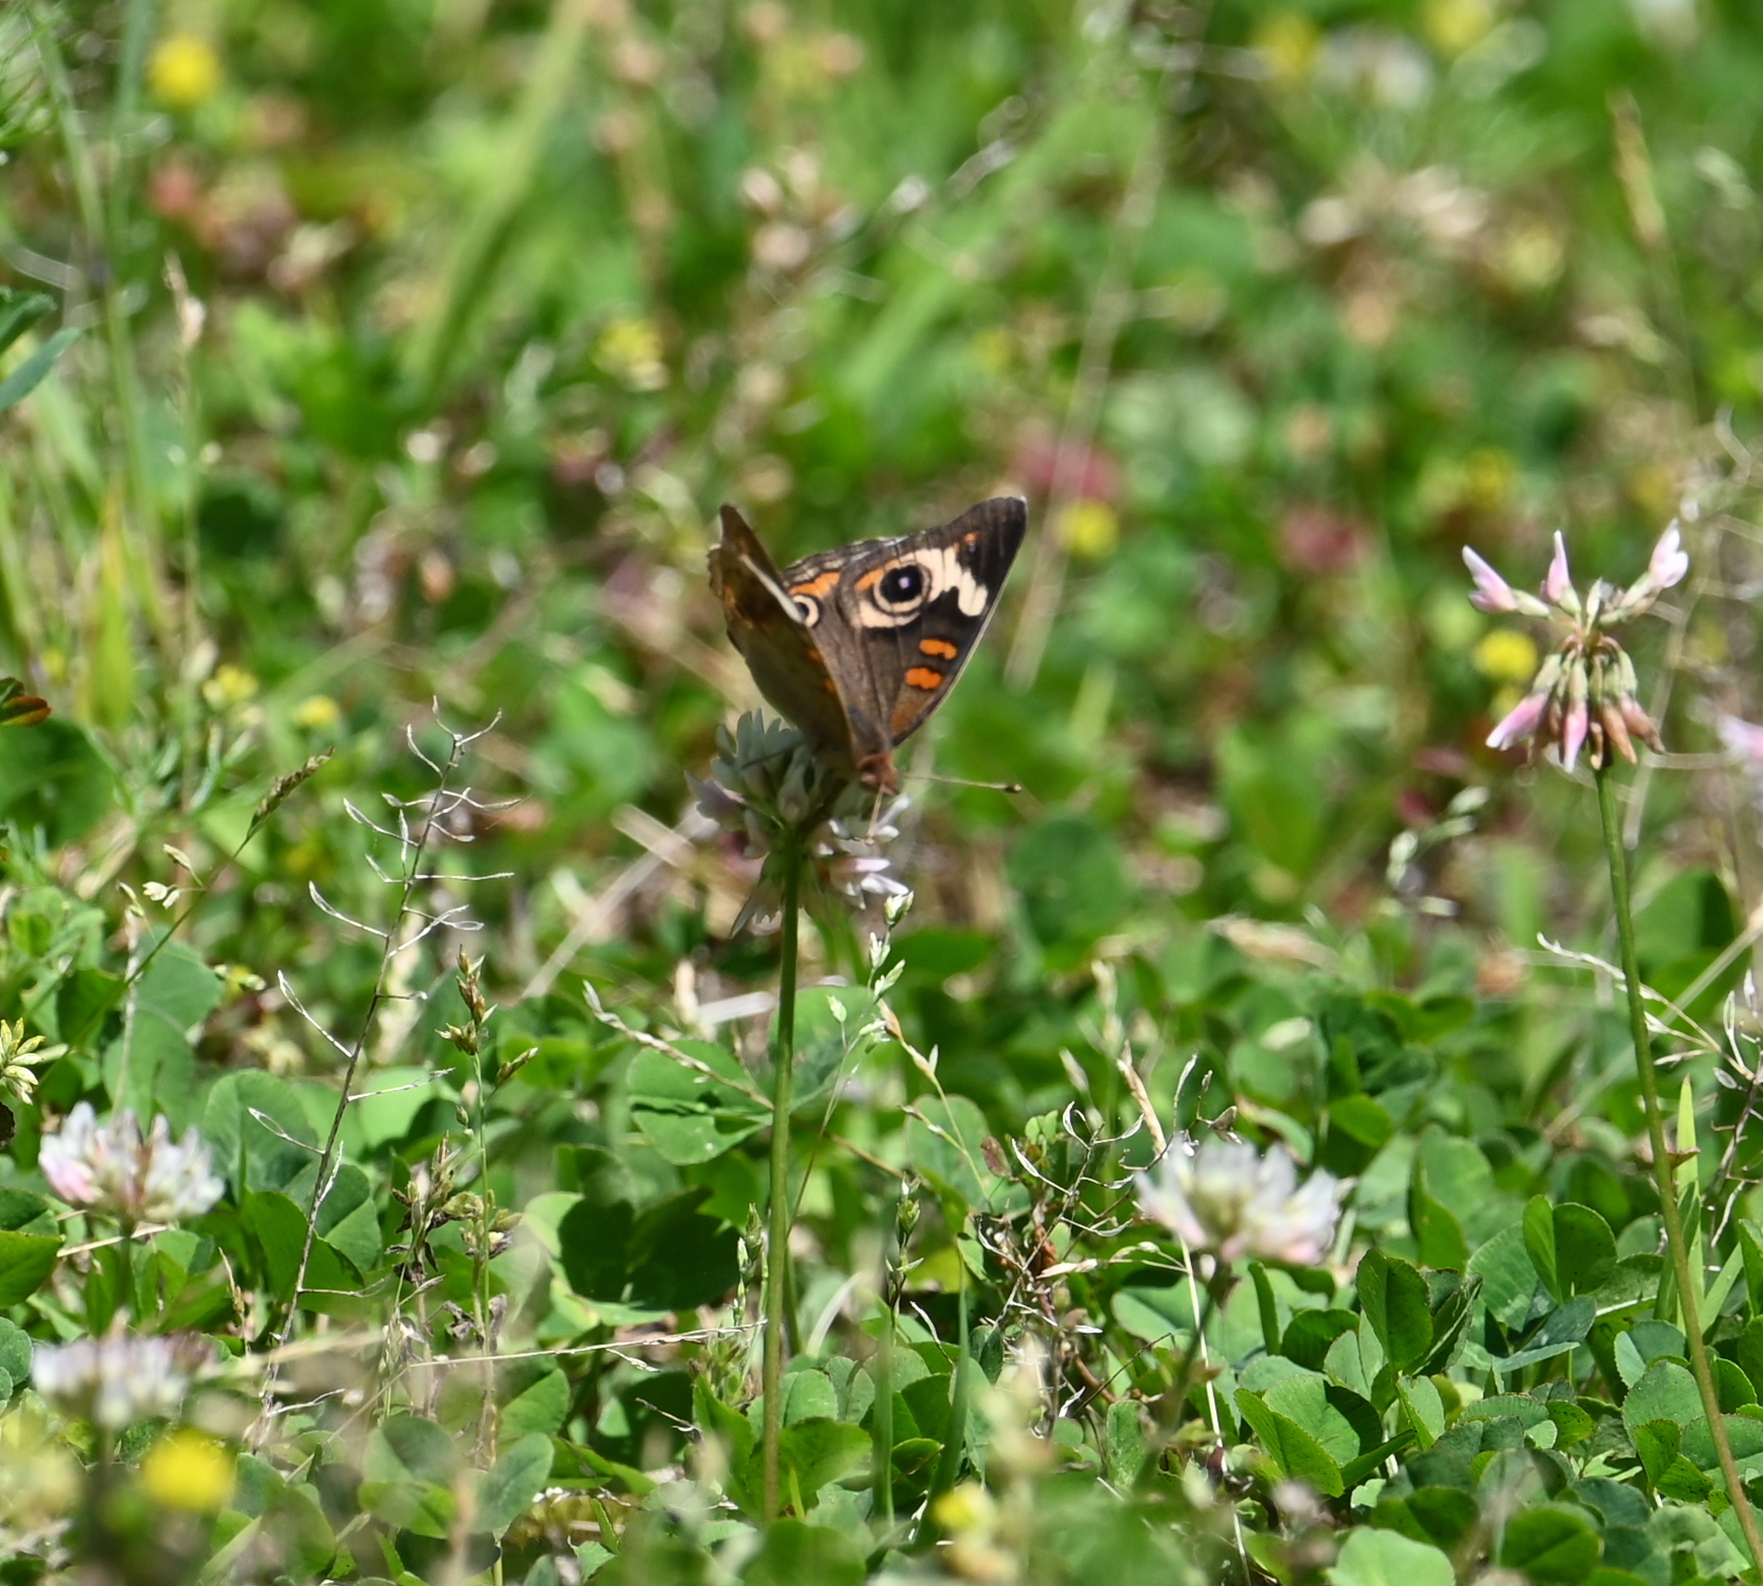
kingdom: Animalia
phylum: Arthropoda
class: Insecta
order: Lepidoptera
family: Nymphalidae
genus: Junonia
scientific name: Junonia coenia
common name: Common buckeye
